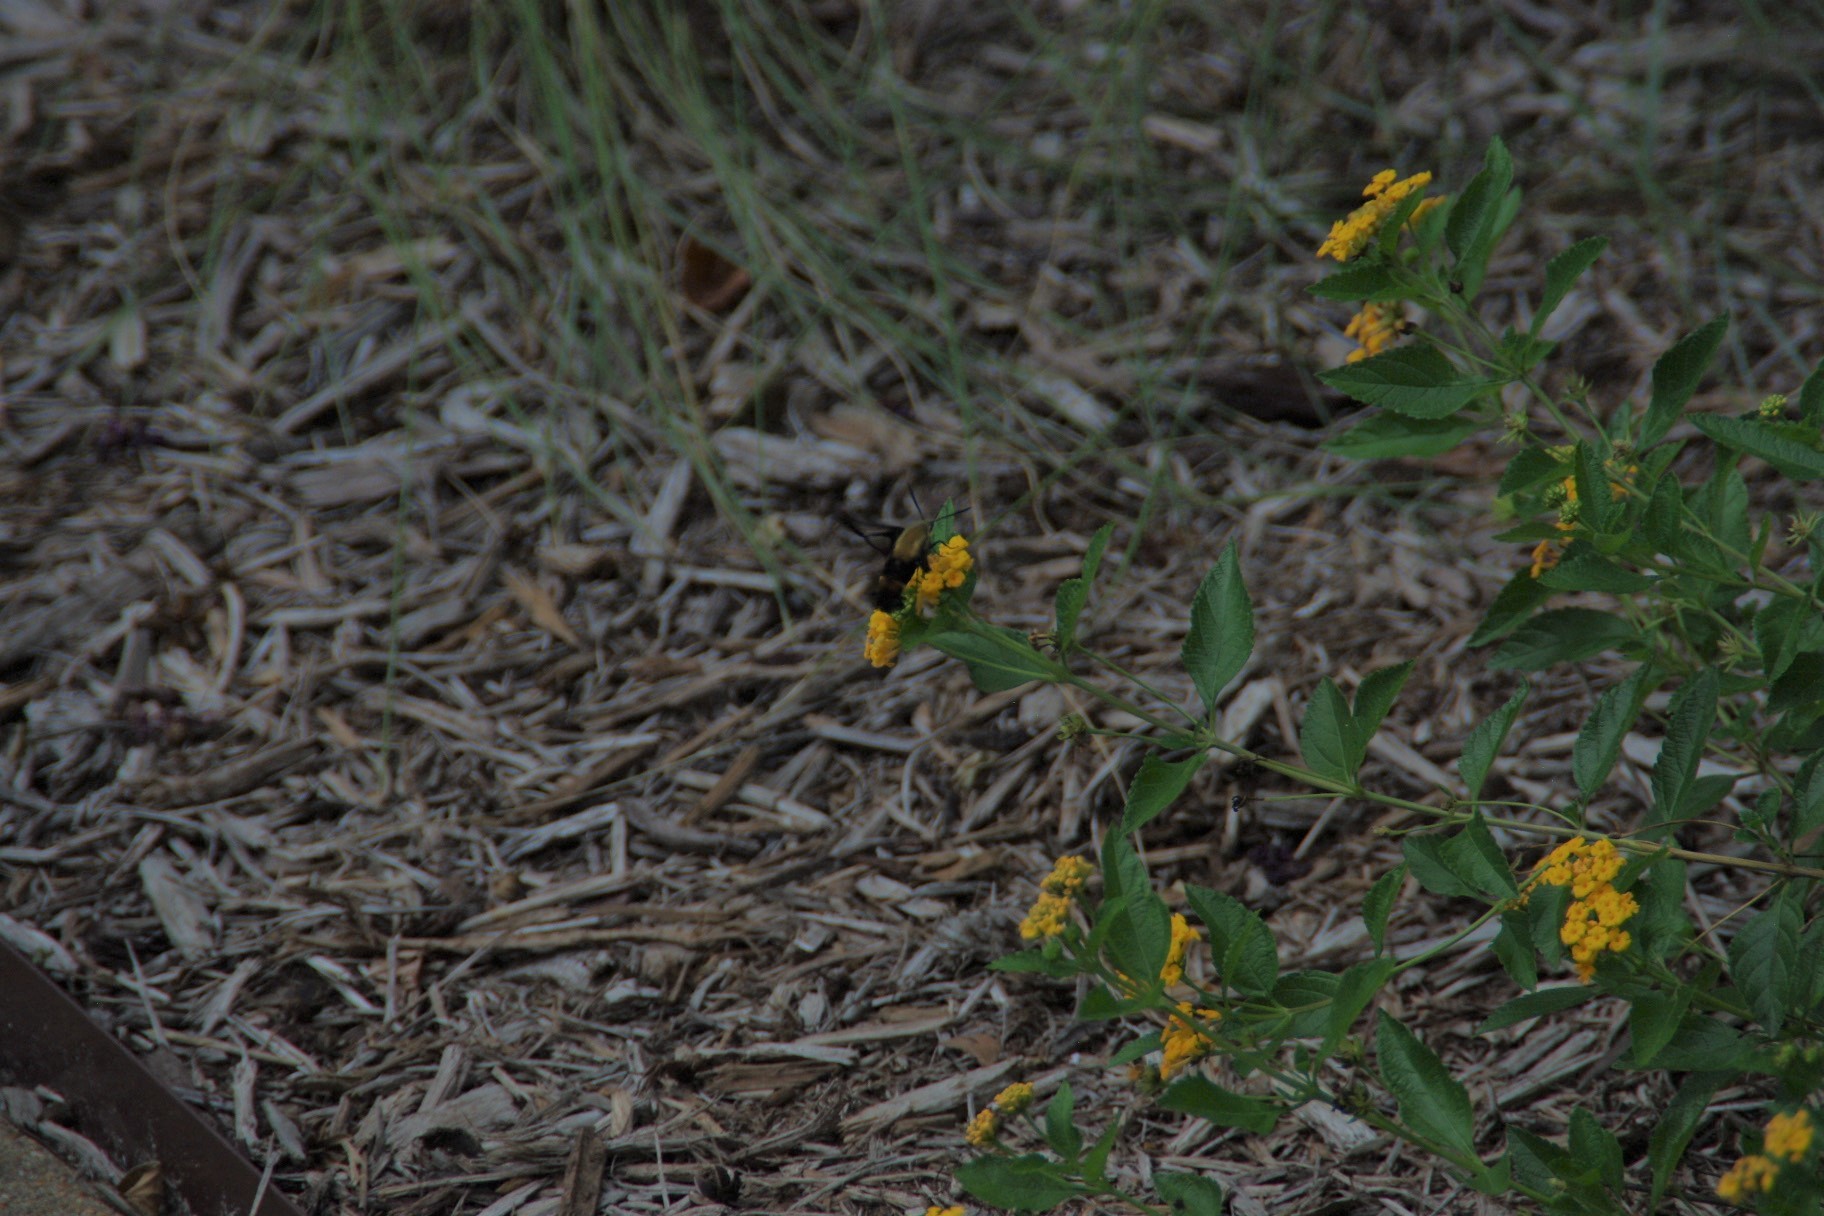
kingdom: Animalia
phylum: Arthropoda
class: Insecta
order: Lepidoptera
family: Sphingidae
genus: Hemaris
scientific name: Hemaris diffinis
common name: Bumblebee moth
